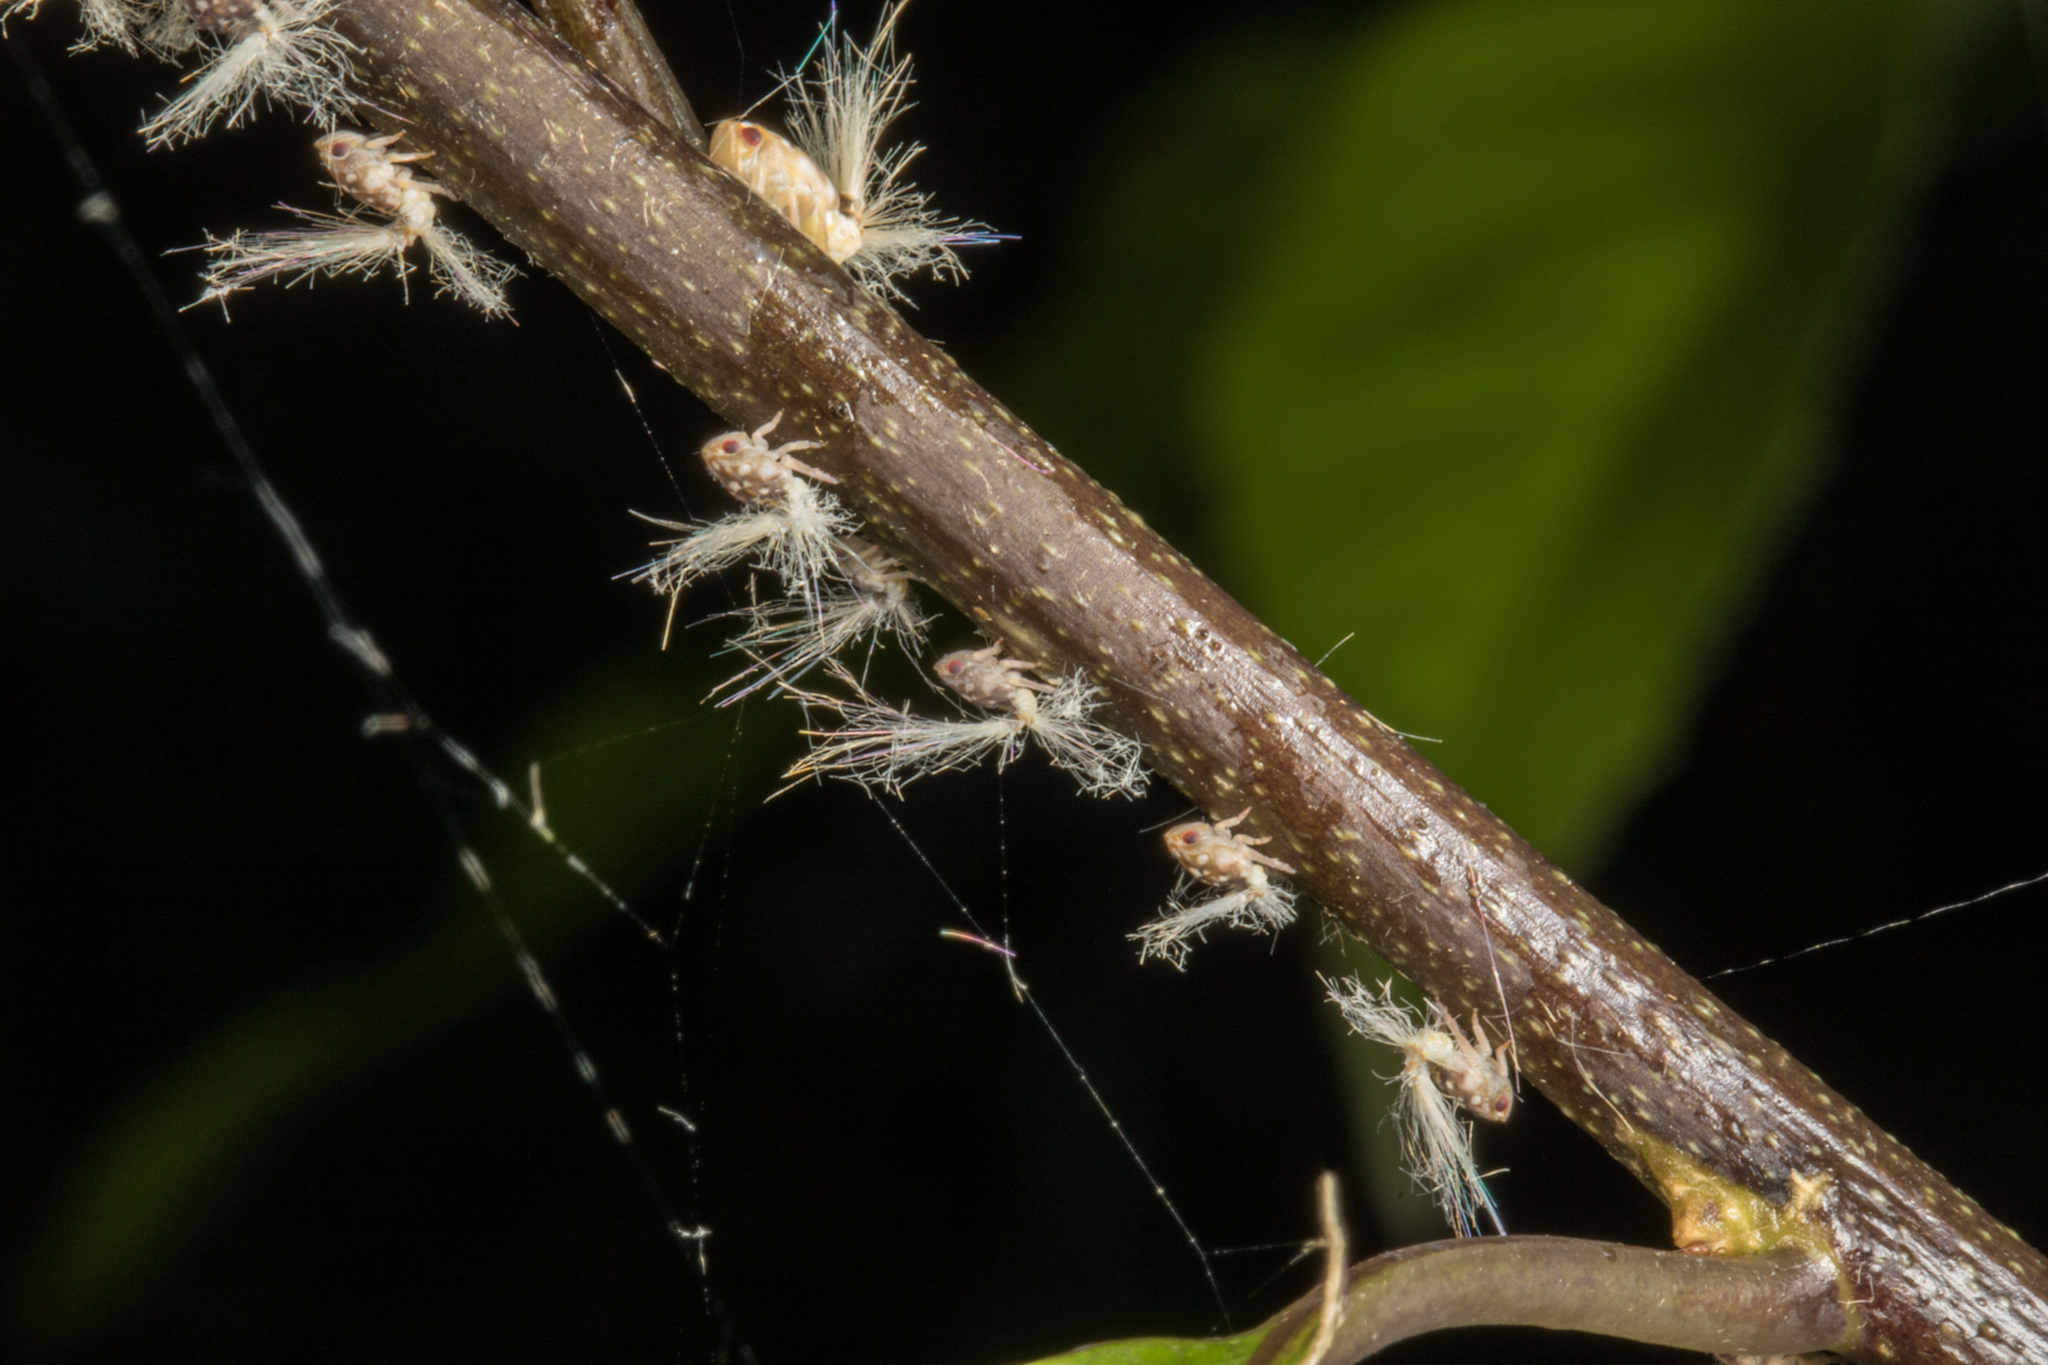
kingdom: Animalia
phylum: Arthropoda
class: Insecta
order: Hemiptera
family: Ricaniidae
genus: Scolypopa
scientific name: Scolypopa australis
